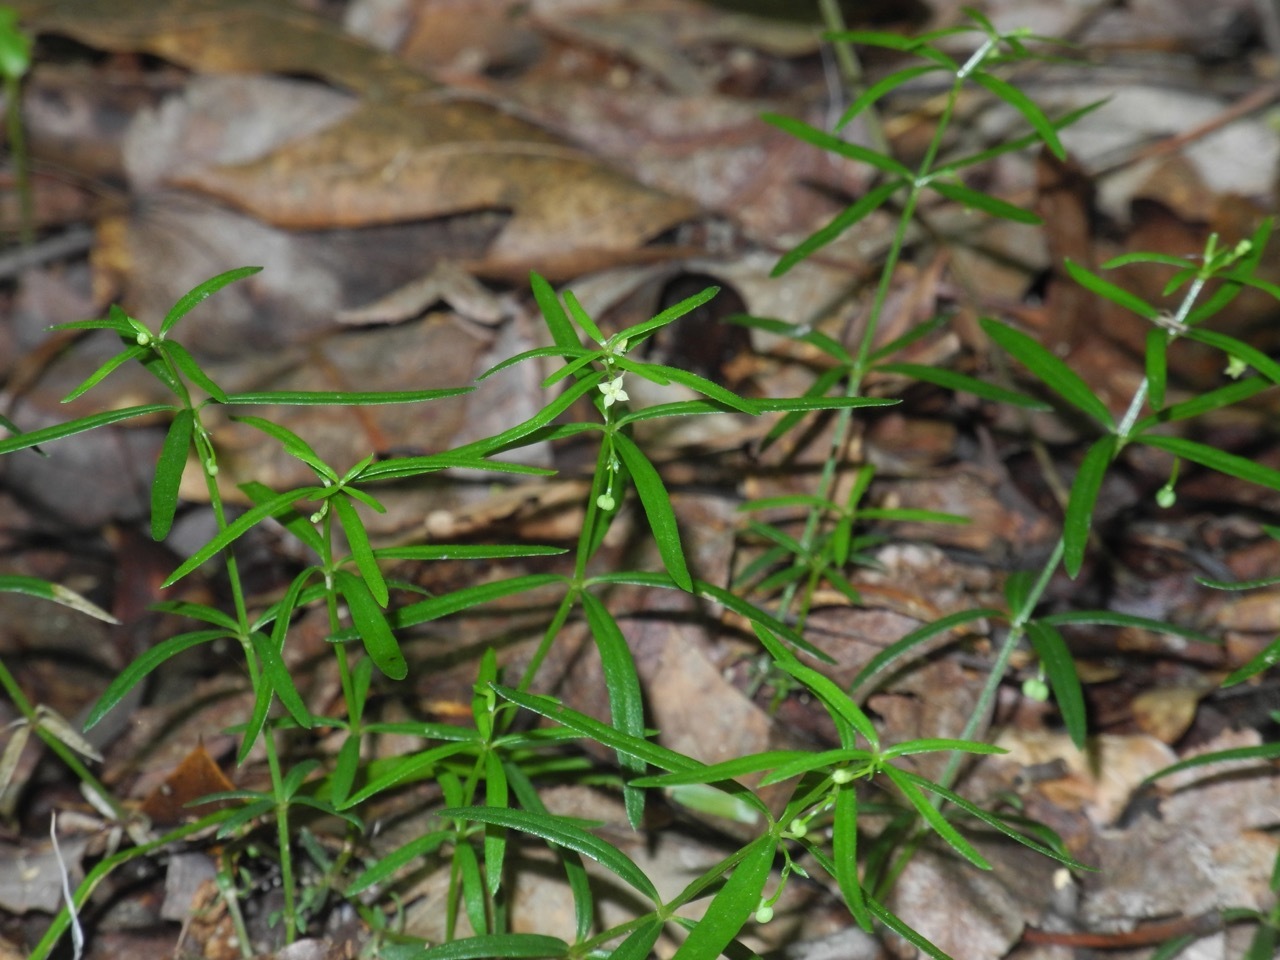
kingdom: Plantae
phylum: Tracheophyta
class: Magnoliopsida
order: Gentianales
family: Rubiaceae
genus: Galium
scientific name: Galium uniflorum
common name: One-flower bedstraw
